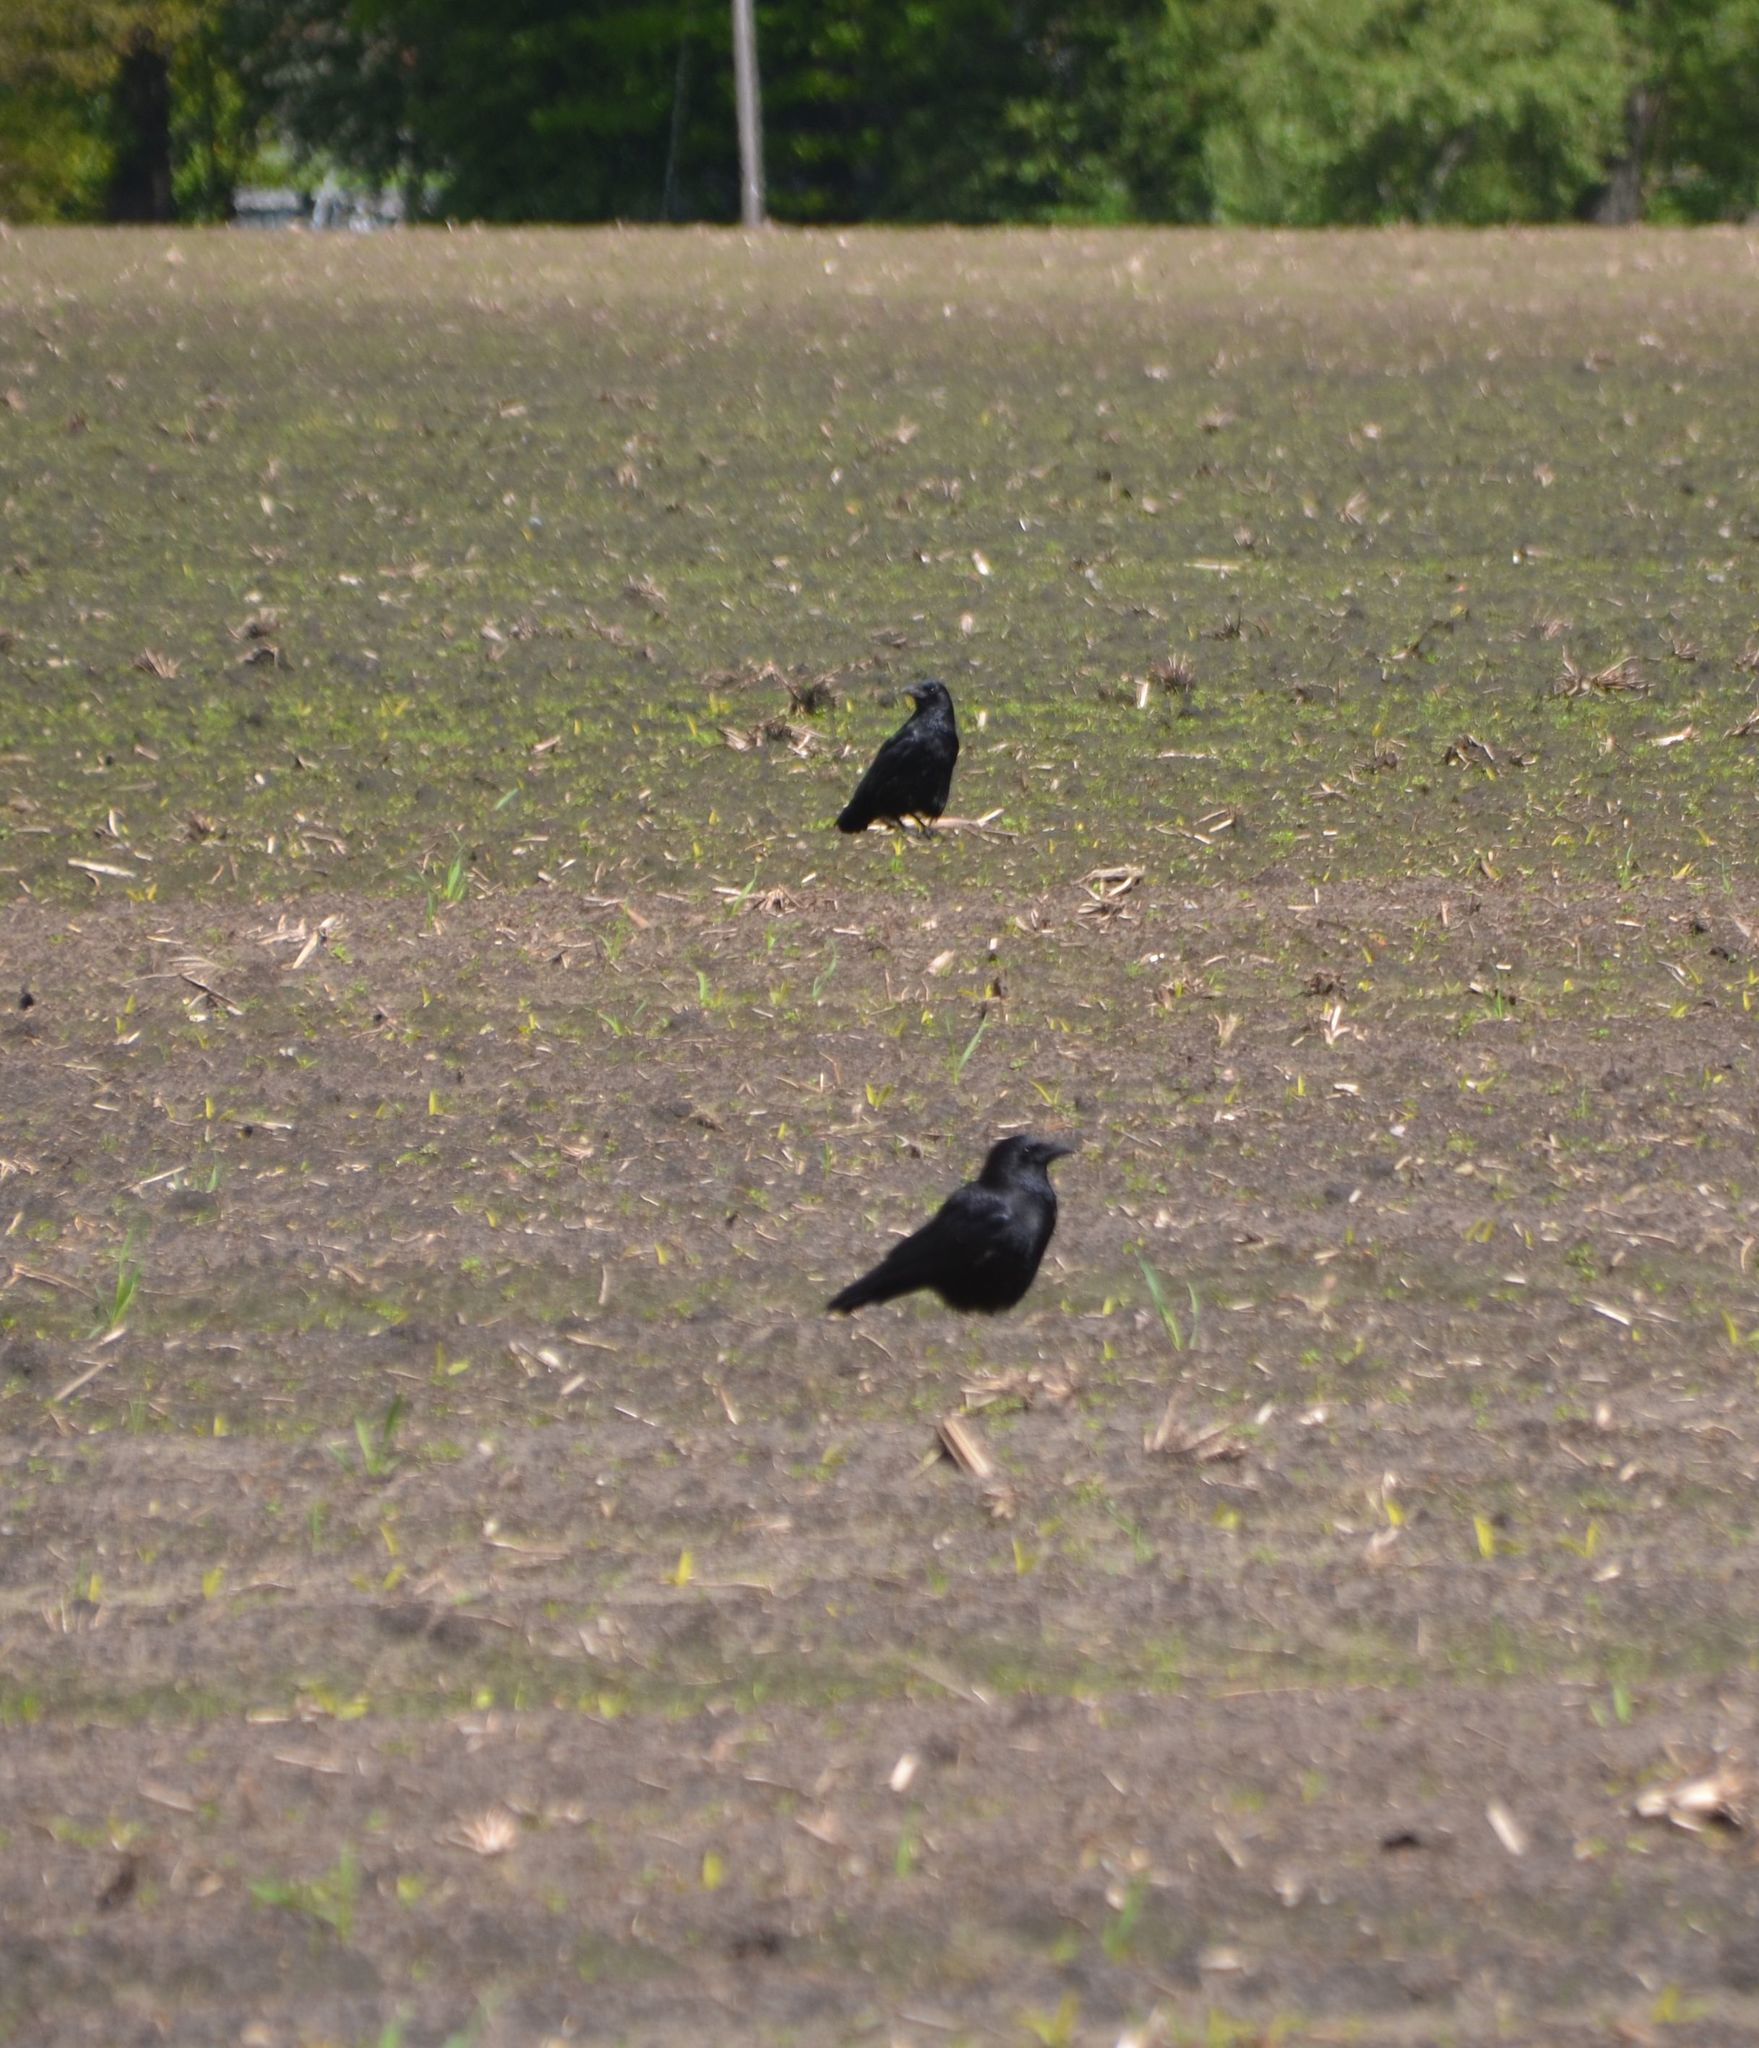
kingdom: Animalia
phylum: Chordata
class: Aves
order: Passeriformes
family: Corvidae
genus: Corvus
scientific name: Corvus corone
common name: Carrion crow
